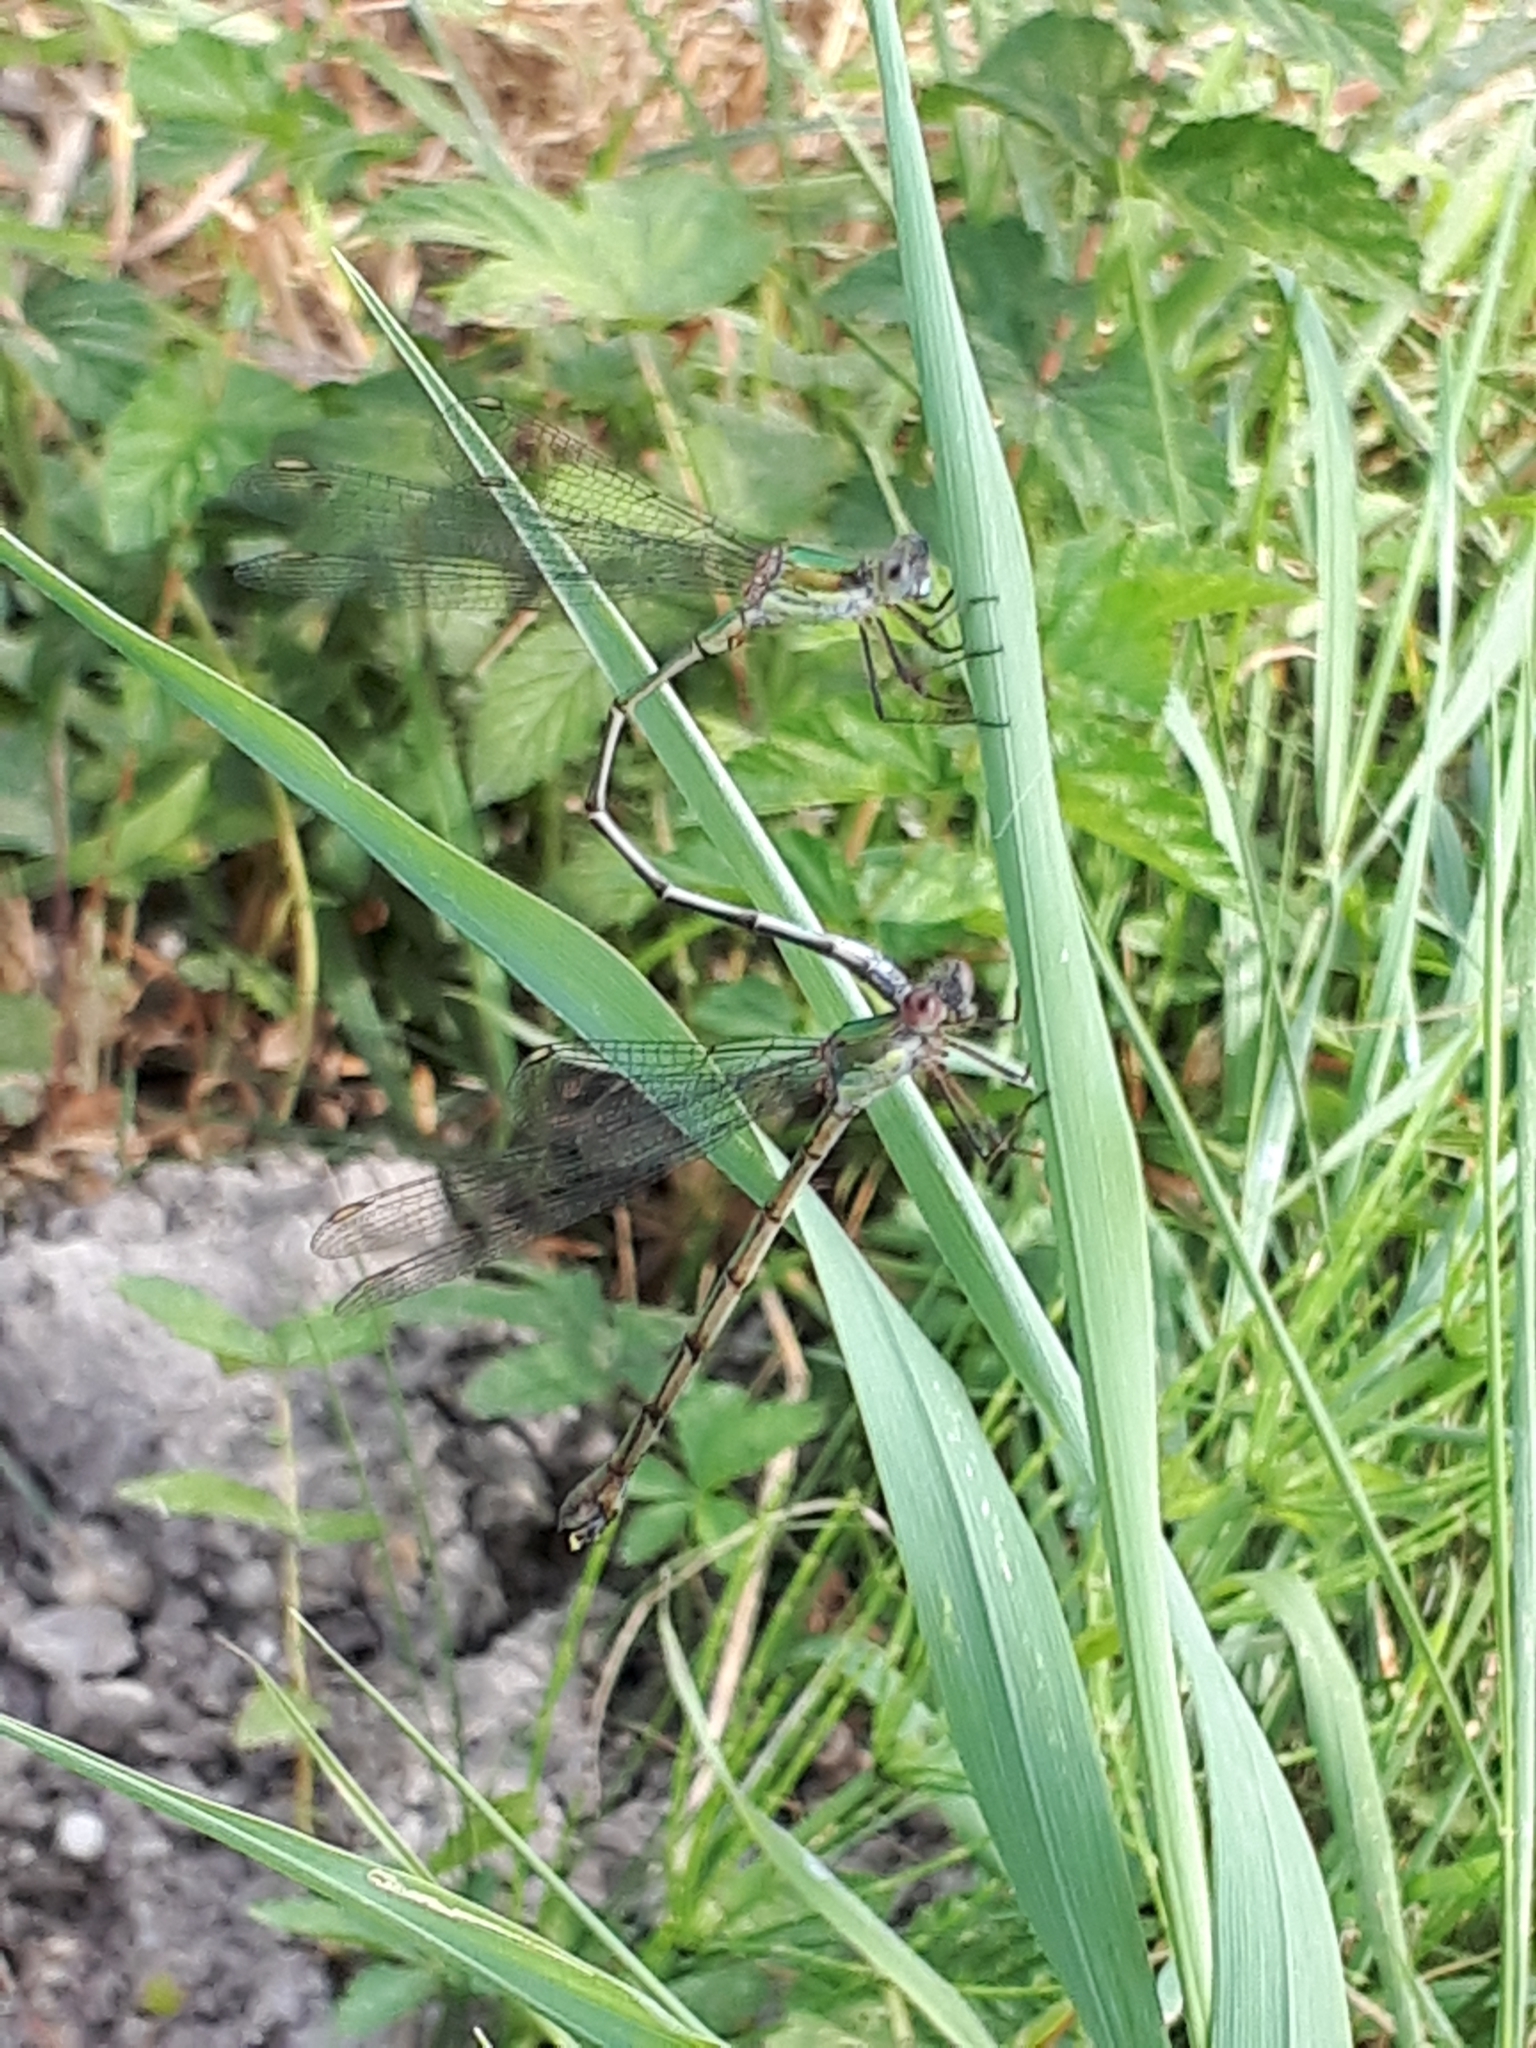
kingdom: Animalia
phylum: Arthropoda
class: Insecta
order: Odonata
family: Lestidae
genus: Chalcolestes
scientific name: Chalcolestes viridis
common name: Green emerald damselfly
